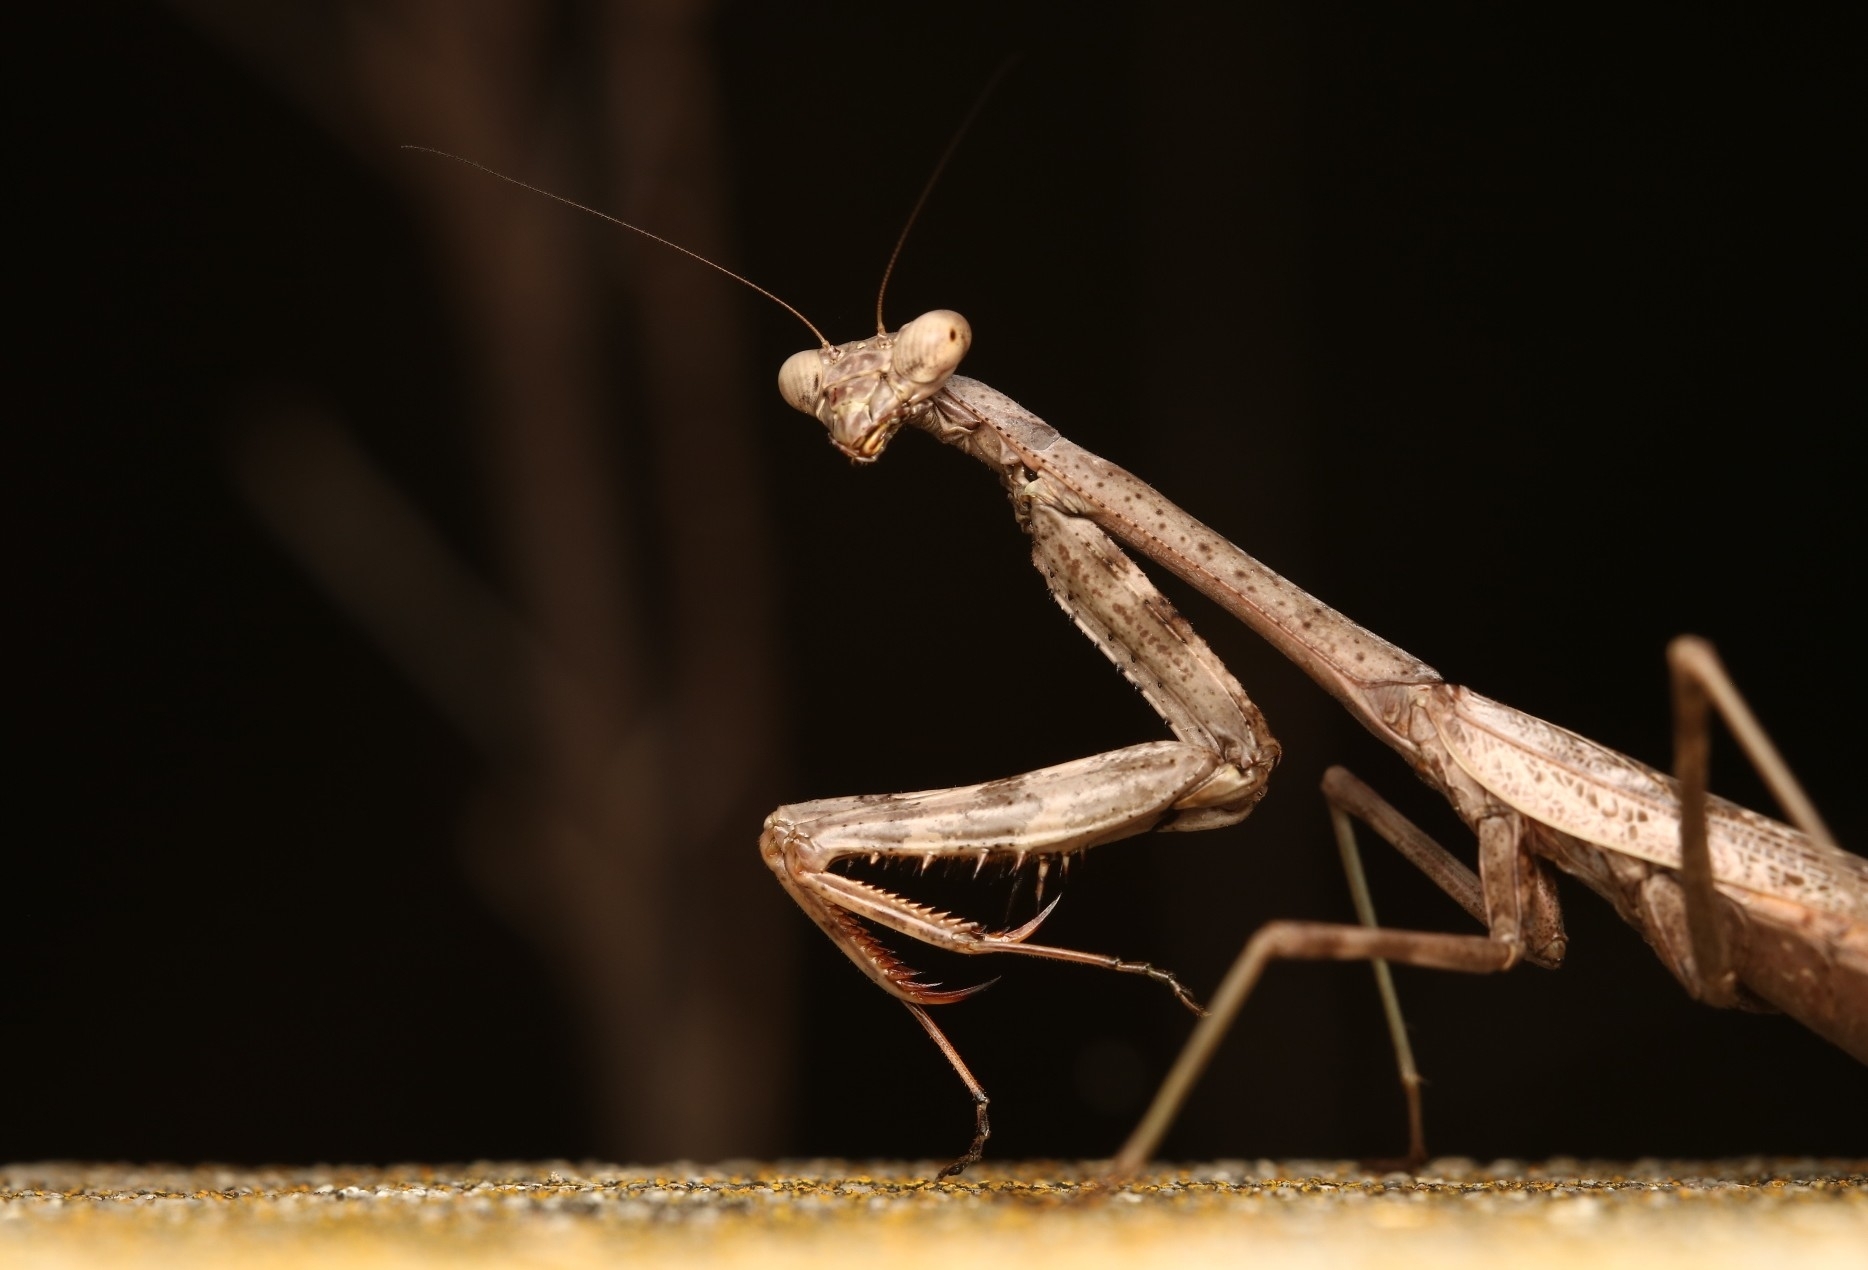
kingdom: Animalia
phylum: Arthropoda
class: Insecta
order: Mantodea
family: Mantidae
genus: Stagmomantis
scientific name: Stagmomantis carolina
